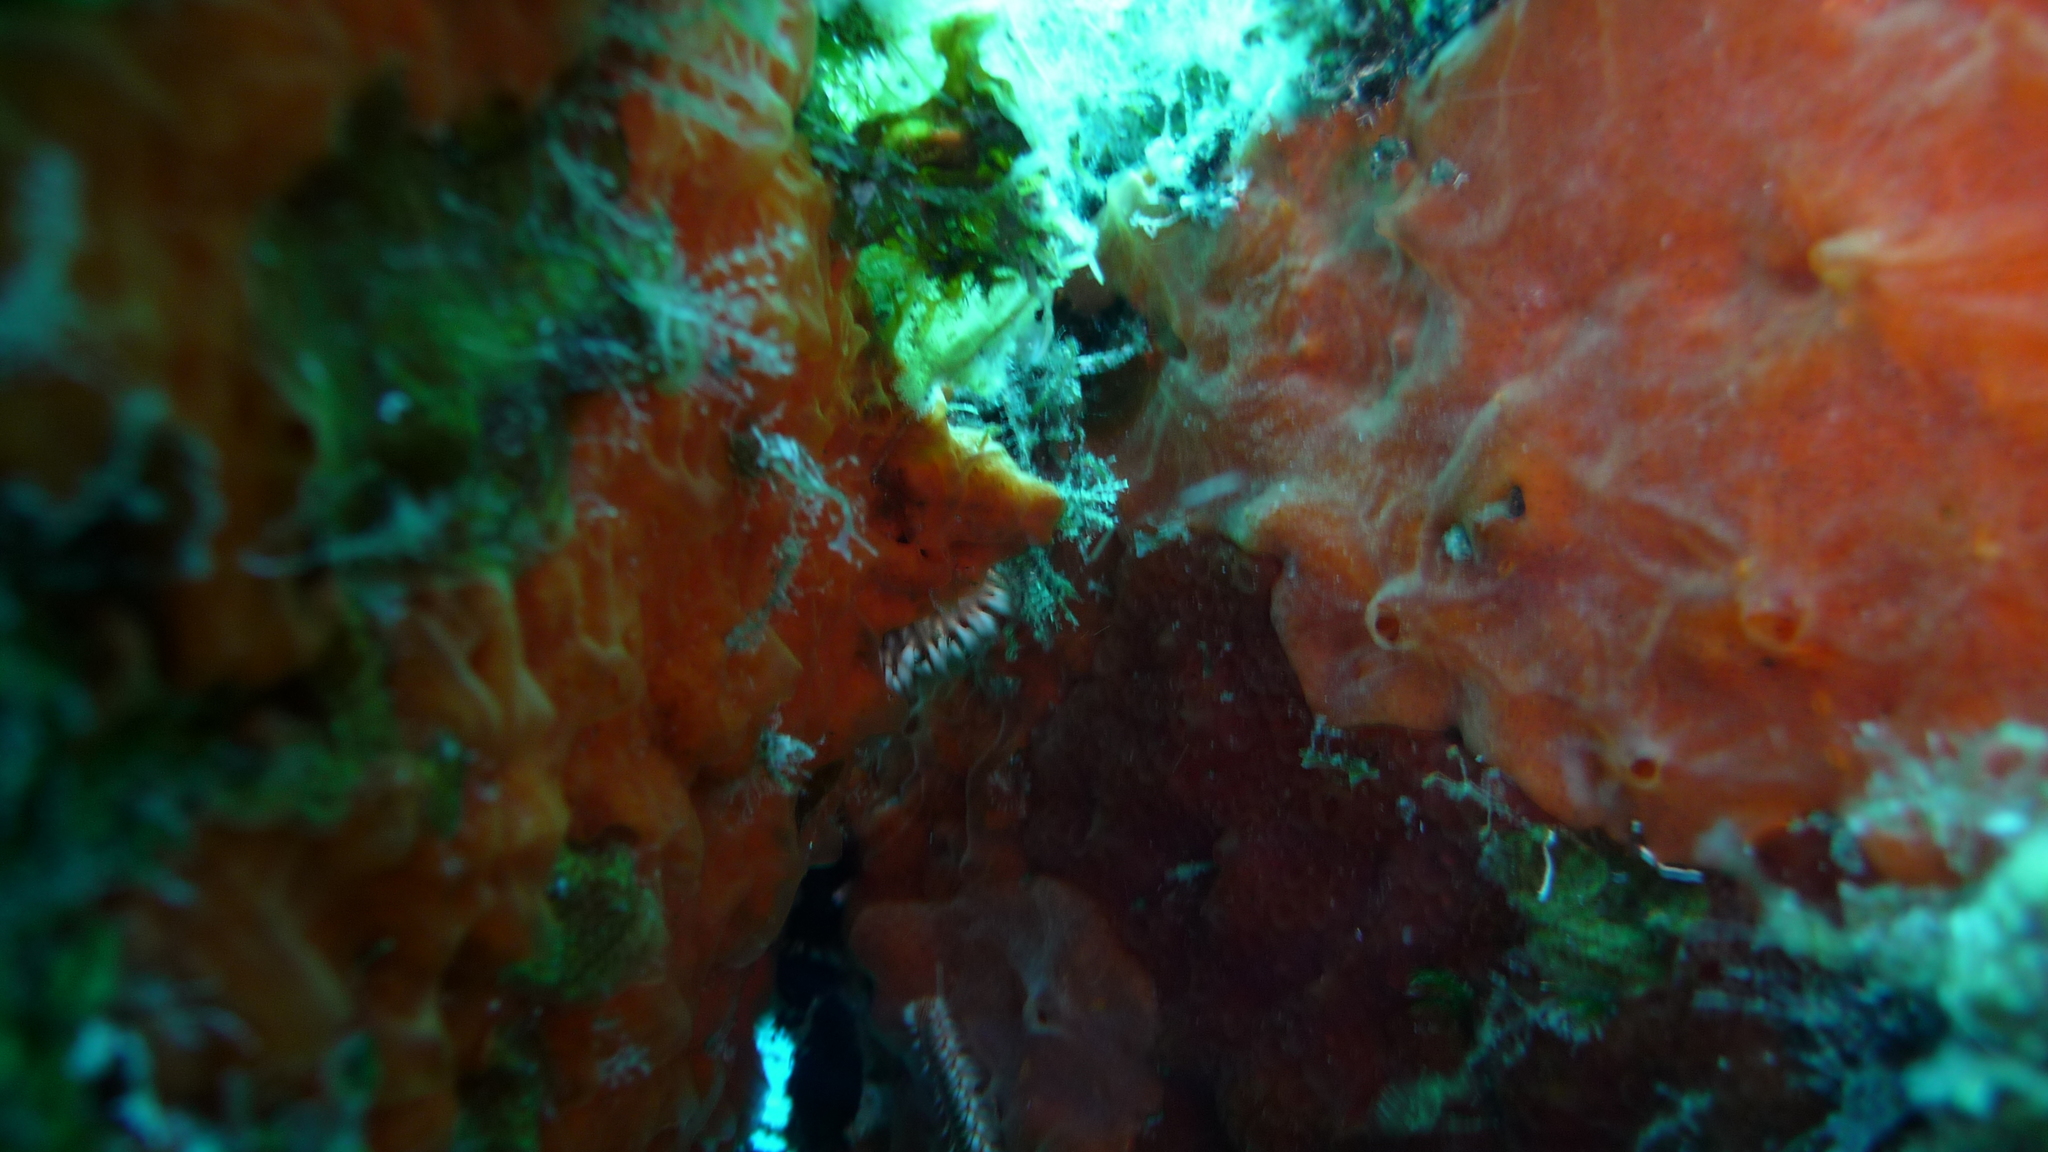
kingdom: Animalia
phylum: Porifera
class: Demospongiae
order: Poecilosclerida
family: Crambeidae
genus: Crambe
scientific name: Crambe crambe
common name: Orange-red encrusting sponge
